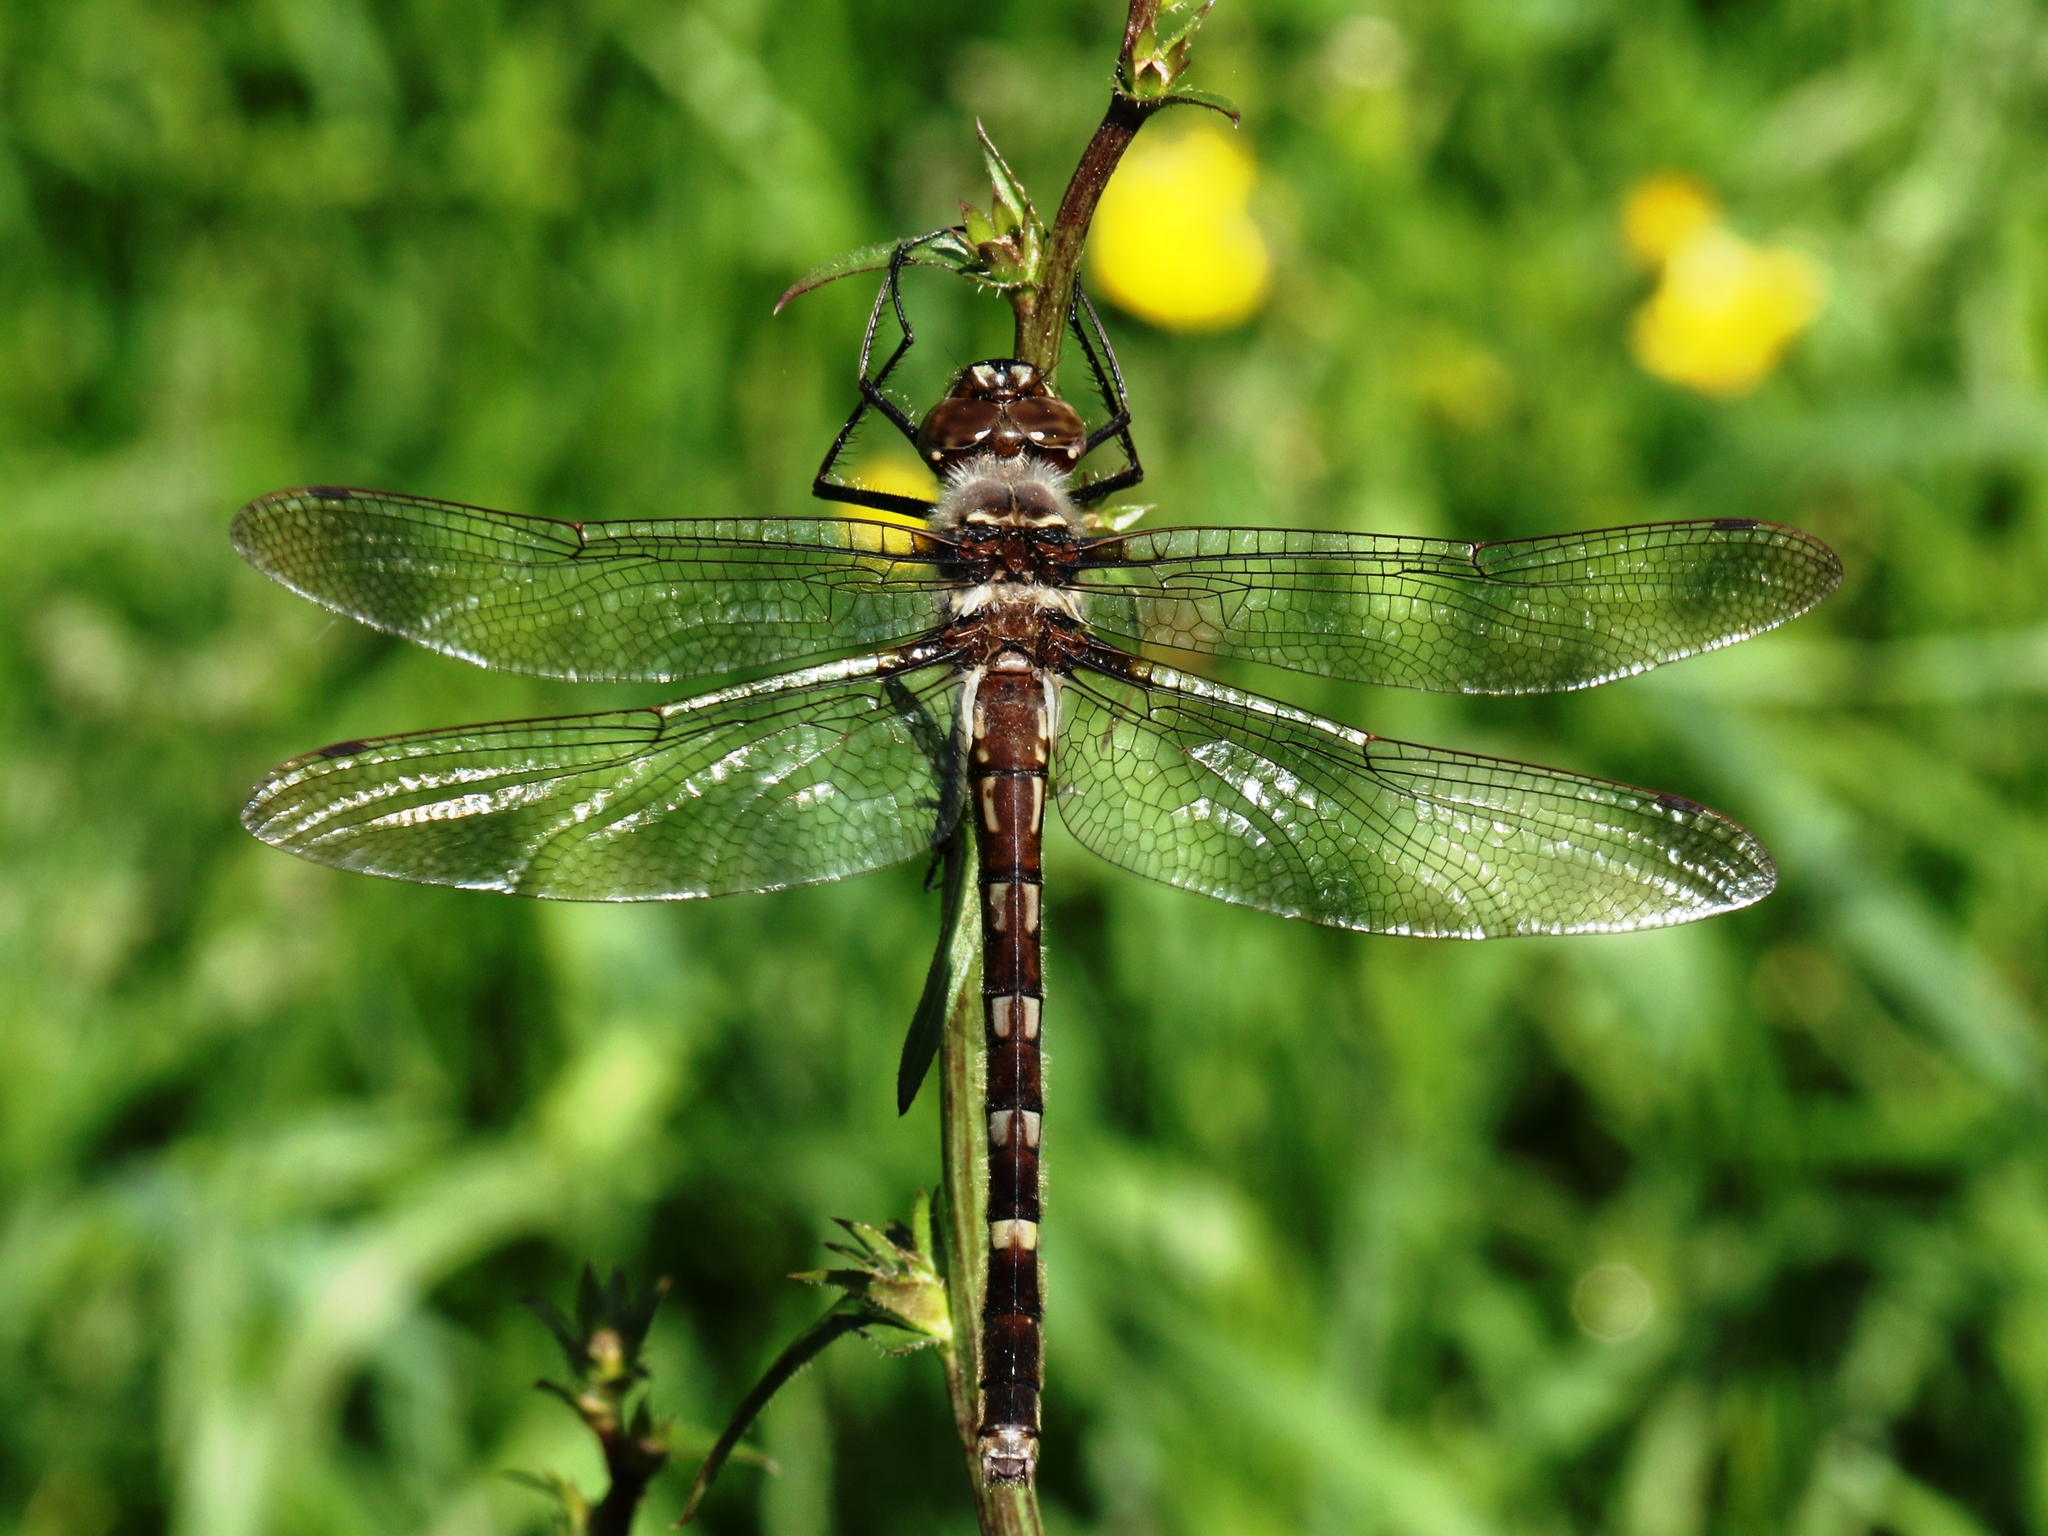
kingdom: Animalia
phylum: Arthropoda
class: Insecta
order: Odonata
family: Macromiidae
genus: Didymops
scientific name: Didymops transversa
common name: Stream cruiser
